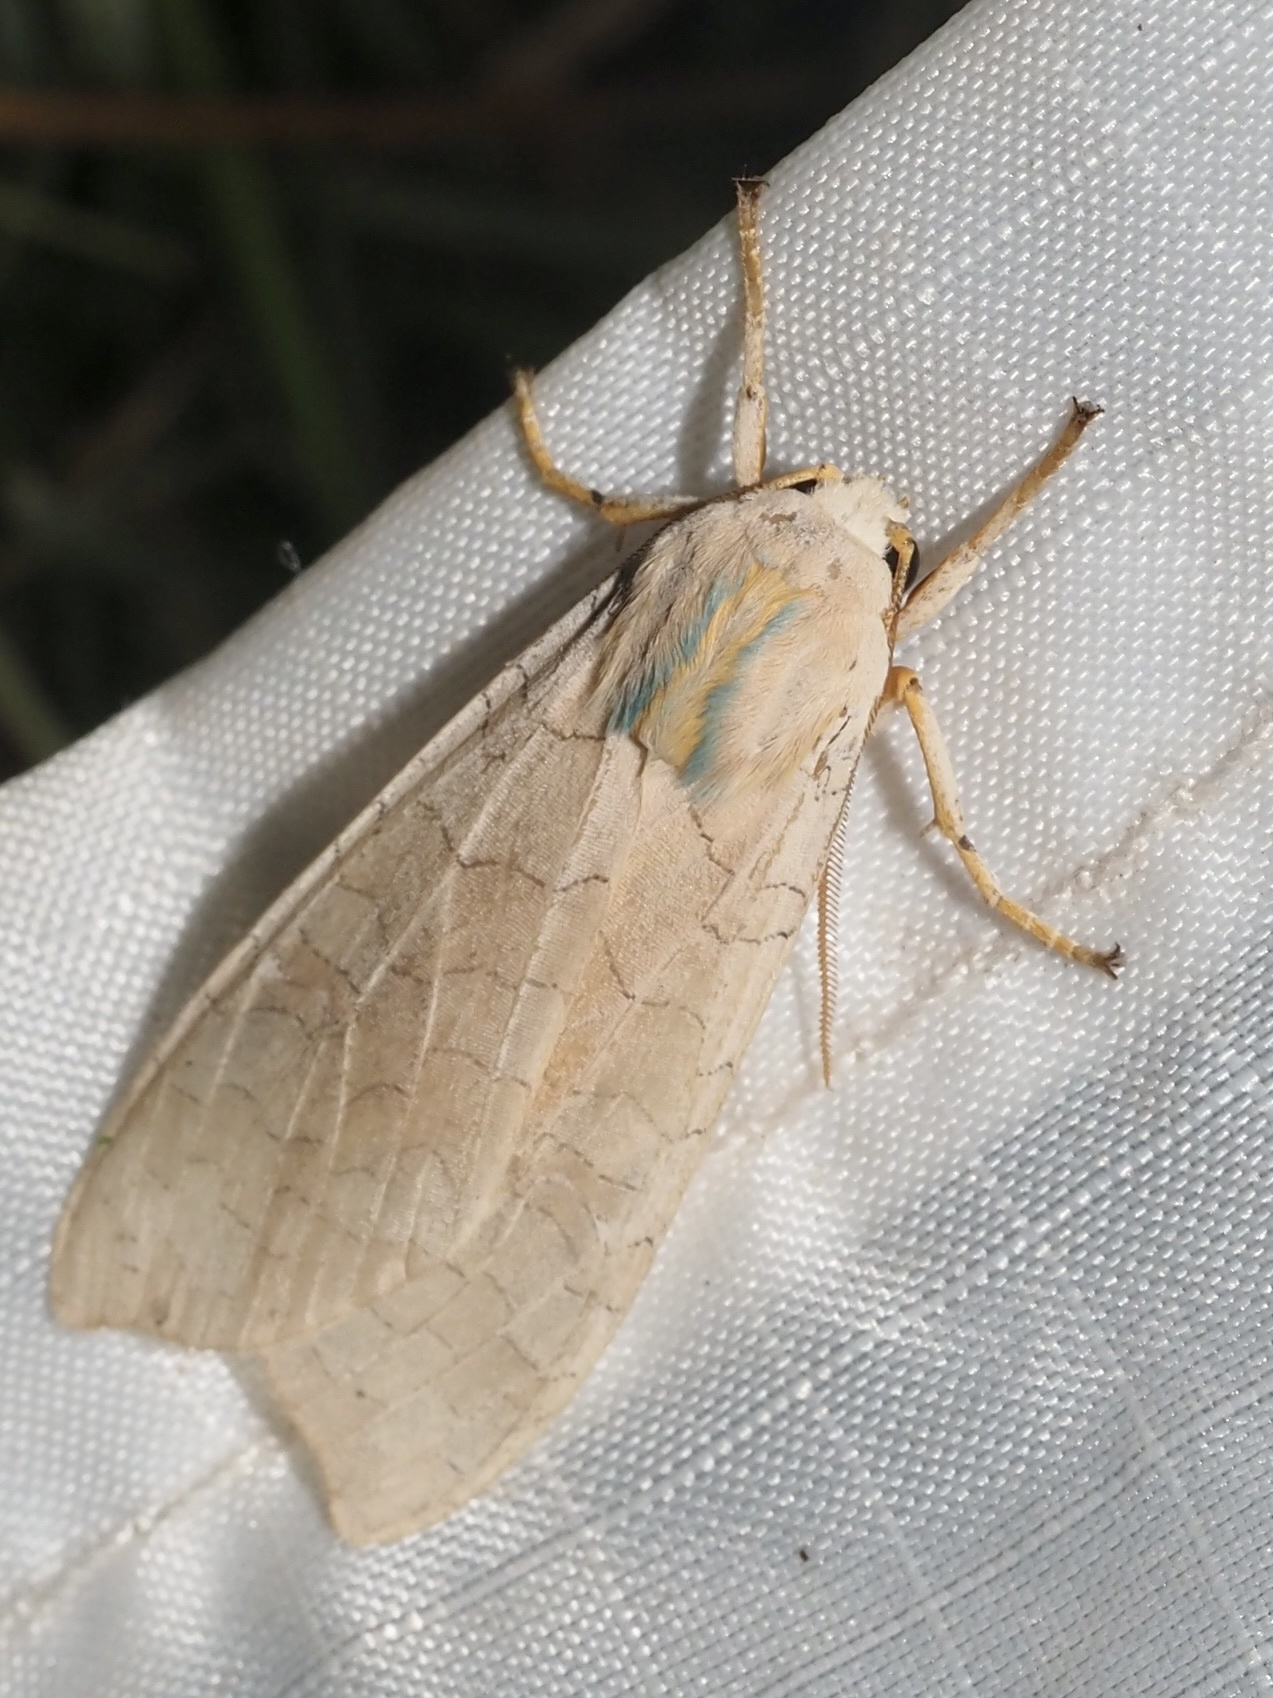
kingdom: Animalia
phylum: Arthropoda
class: Insecta
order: Lepidoptera
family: Erebidae
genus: Halysidota
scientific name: Halysidota
